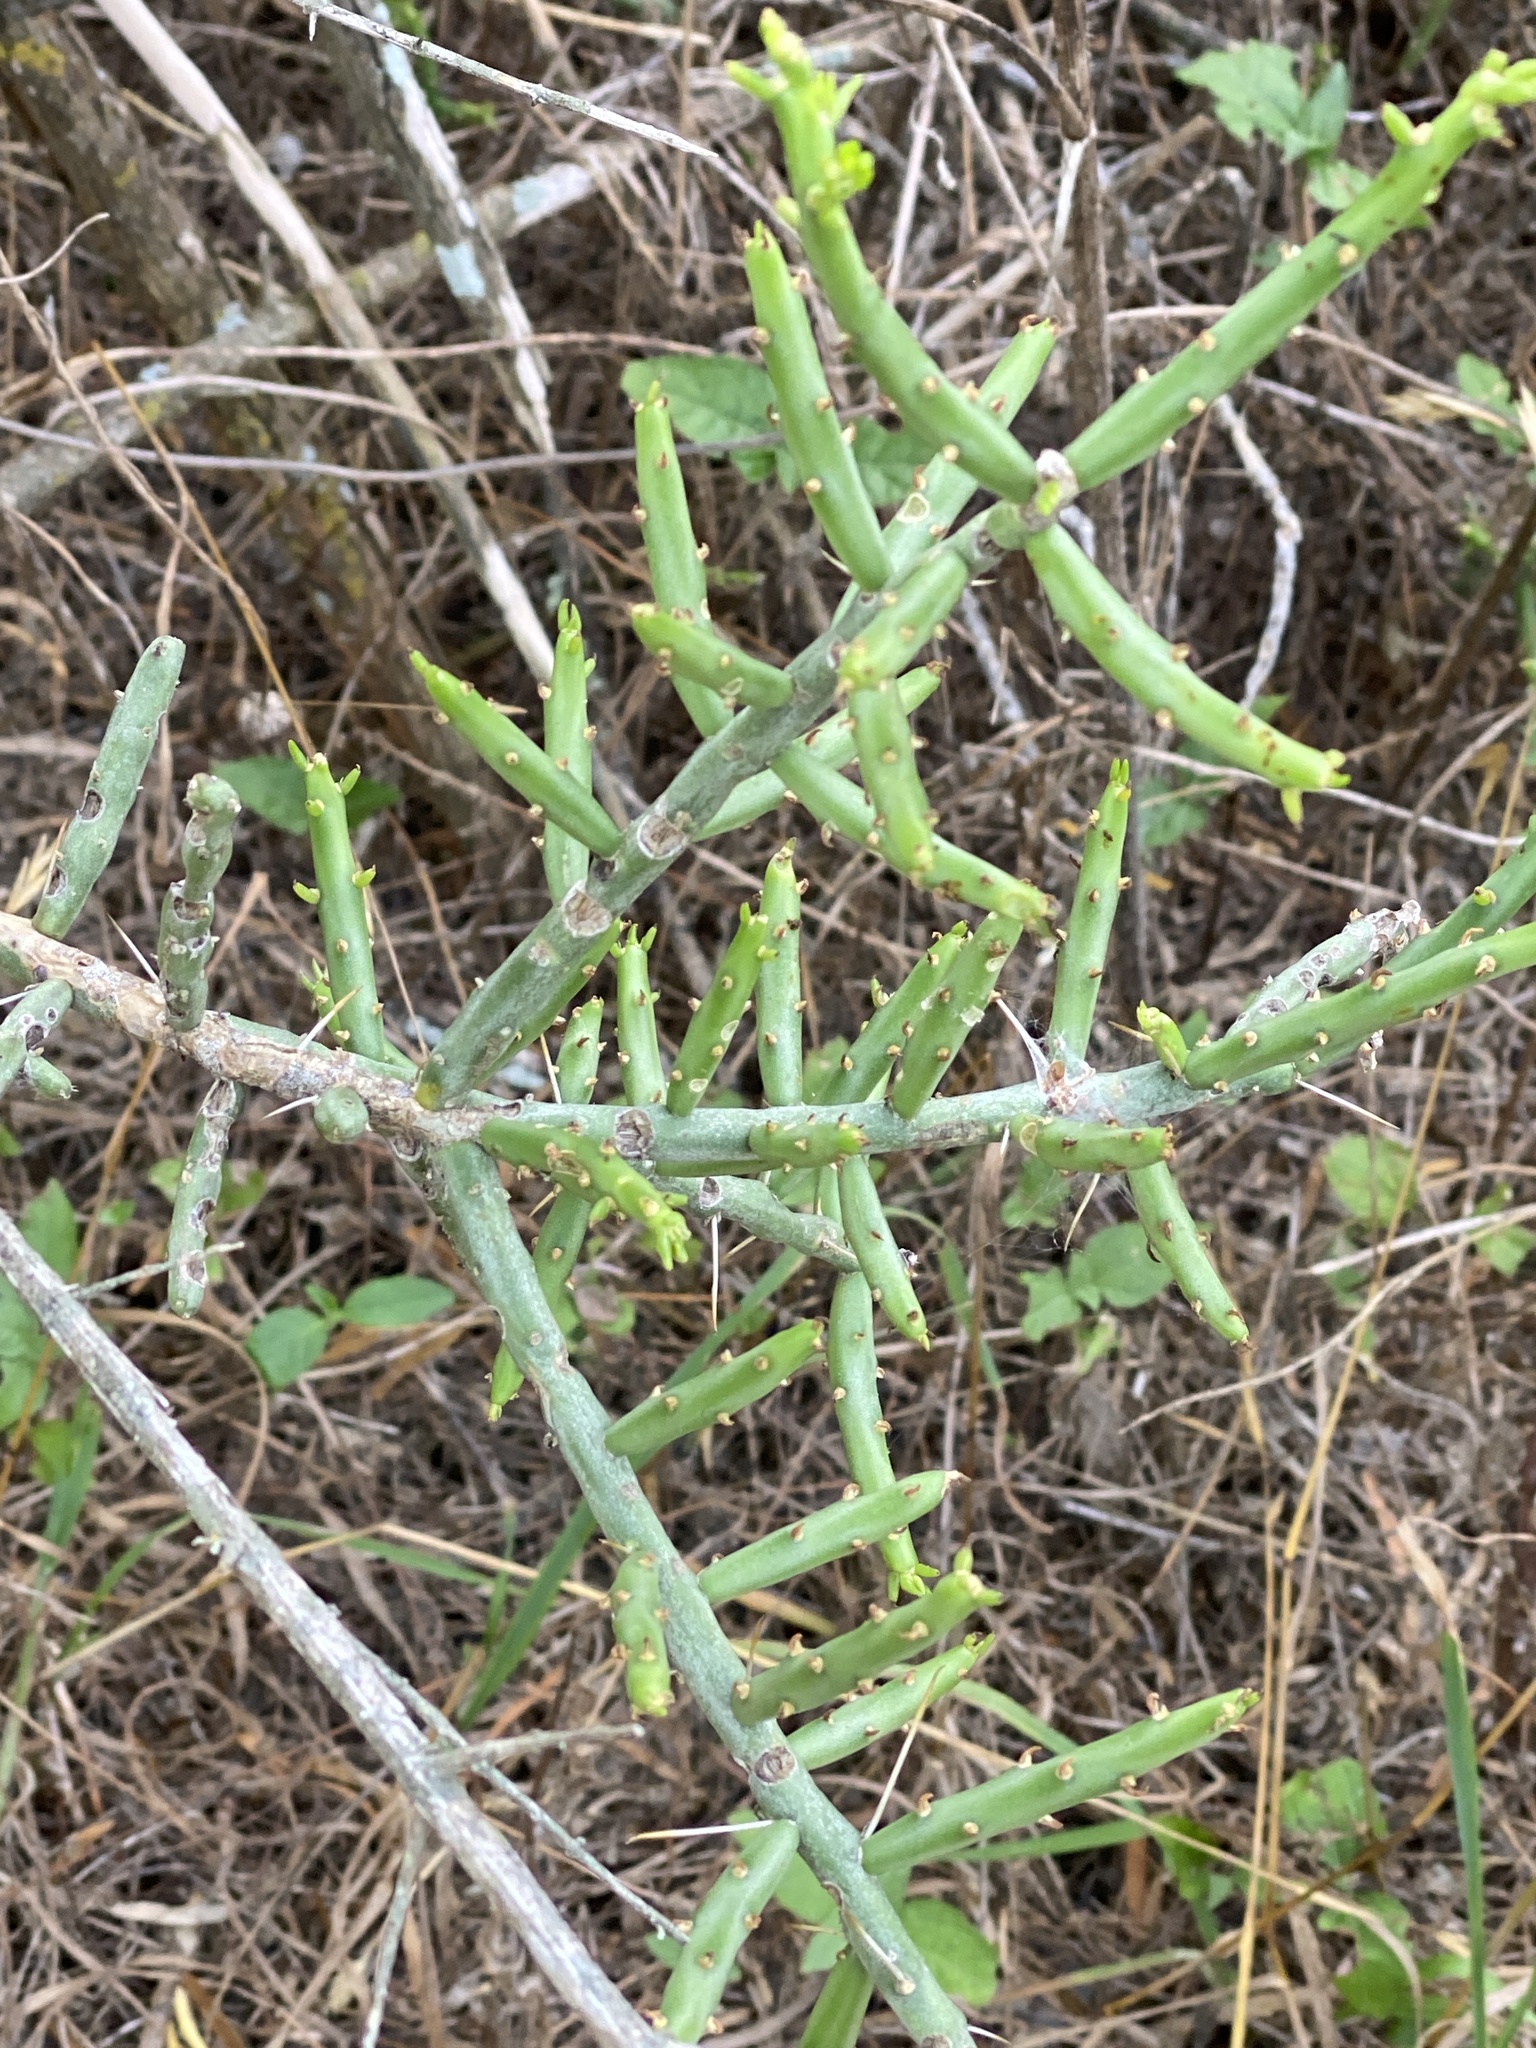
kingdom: Plantae
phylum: Tracheophyta
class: Magnoliopsida
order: Caryophyllales
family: Cactaceae
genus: Cylindropuntia
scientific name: Cylindropuntia leptocaulis
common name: Christmas cactus
